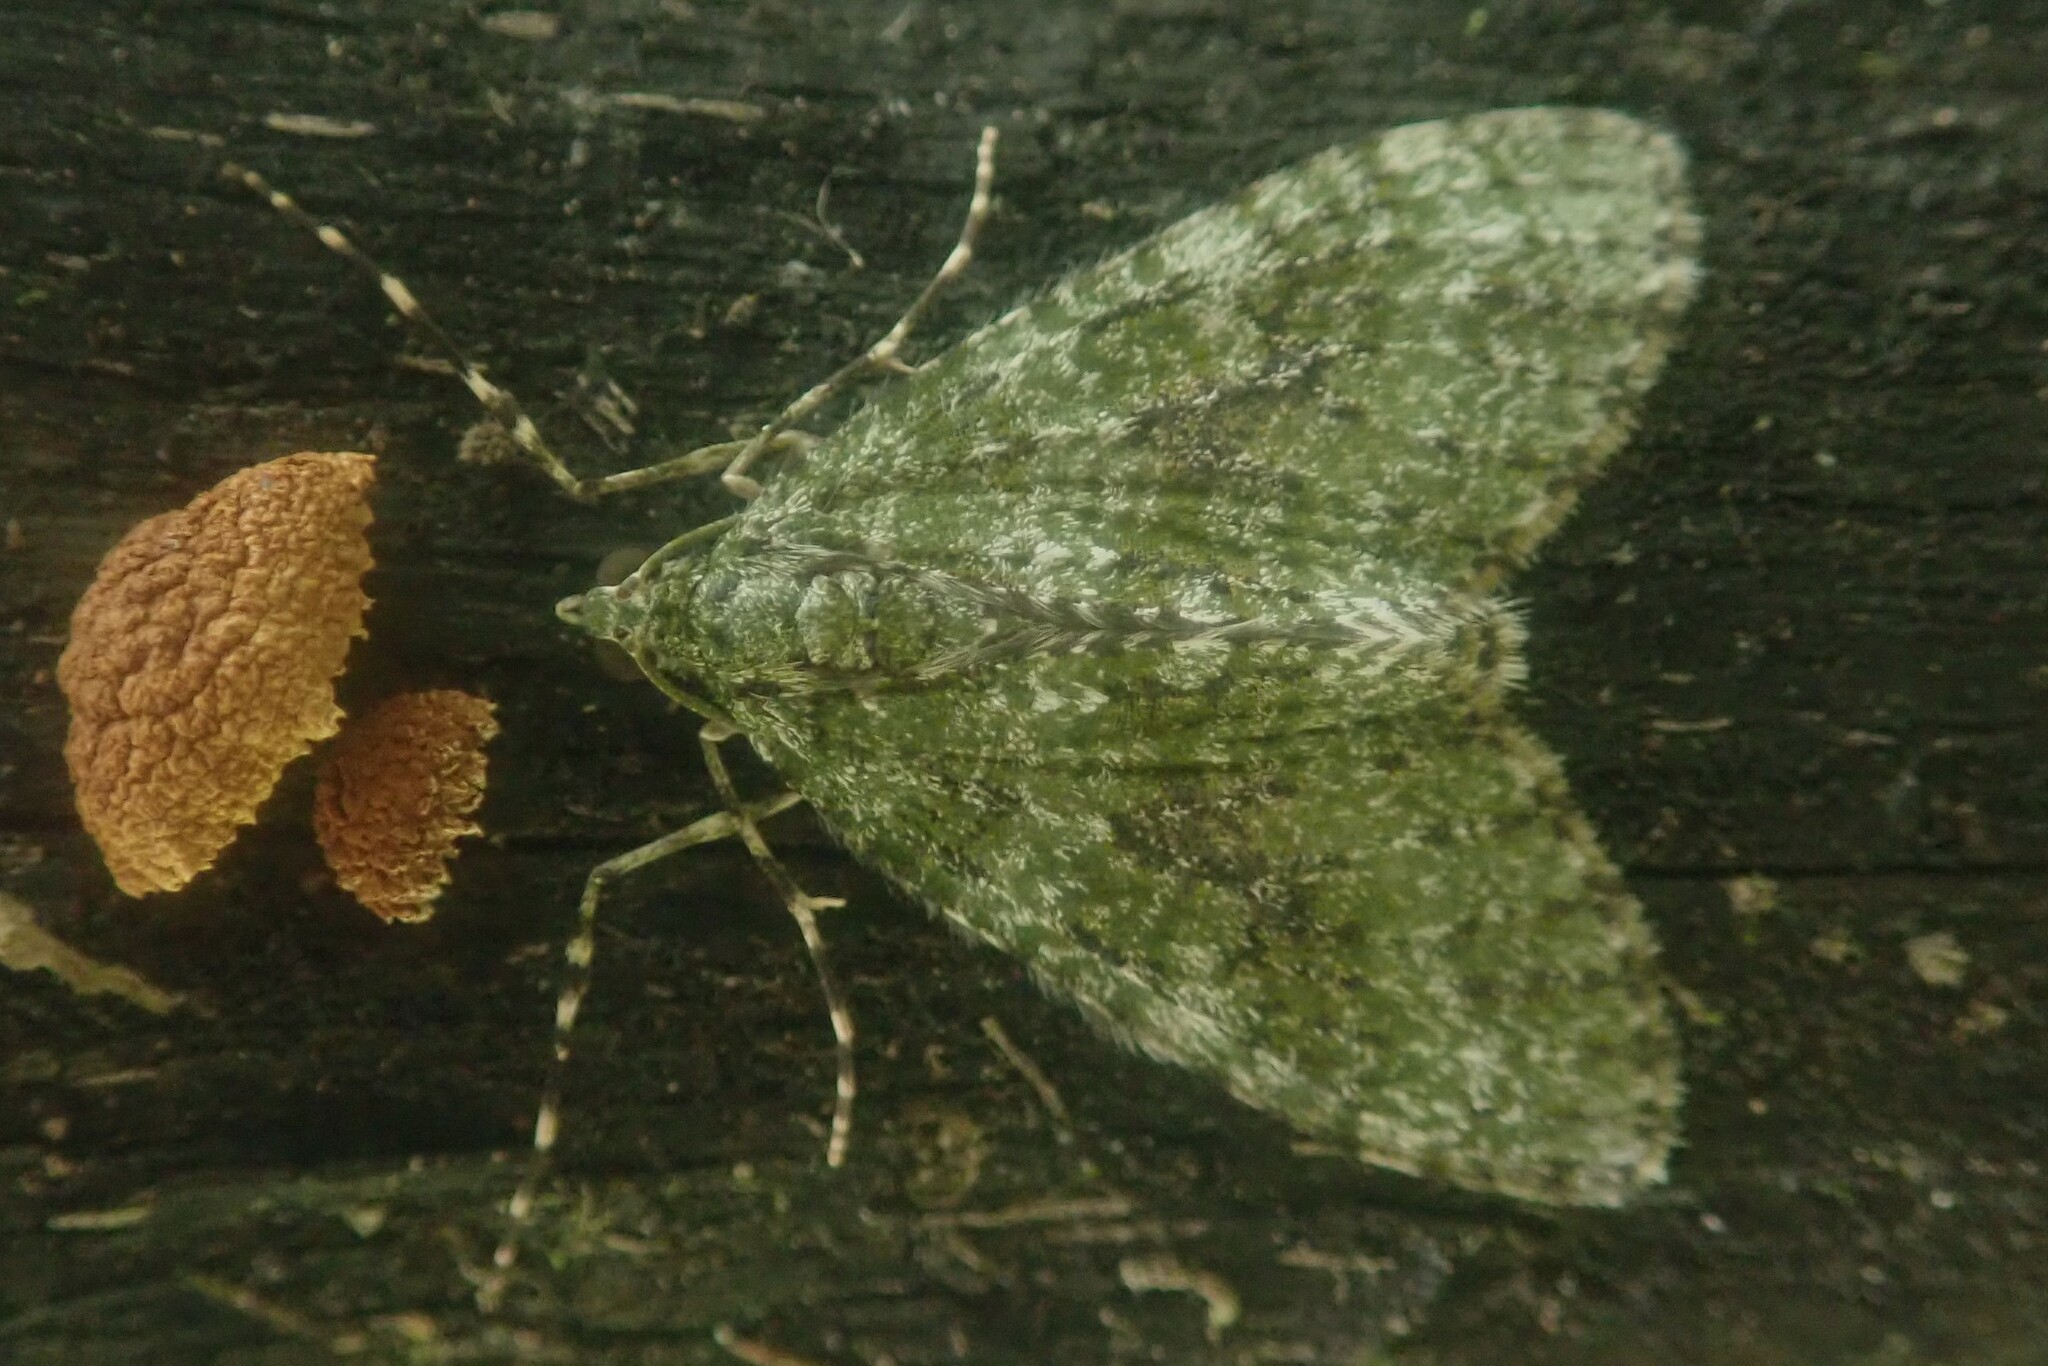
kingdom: Animalia
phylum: Arthropoda
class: Insecta
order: Lepidoptera
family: Geometridae
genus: Protosteira
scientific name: Protosteira spectabilis
